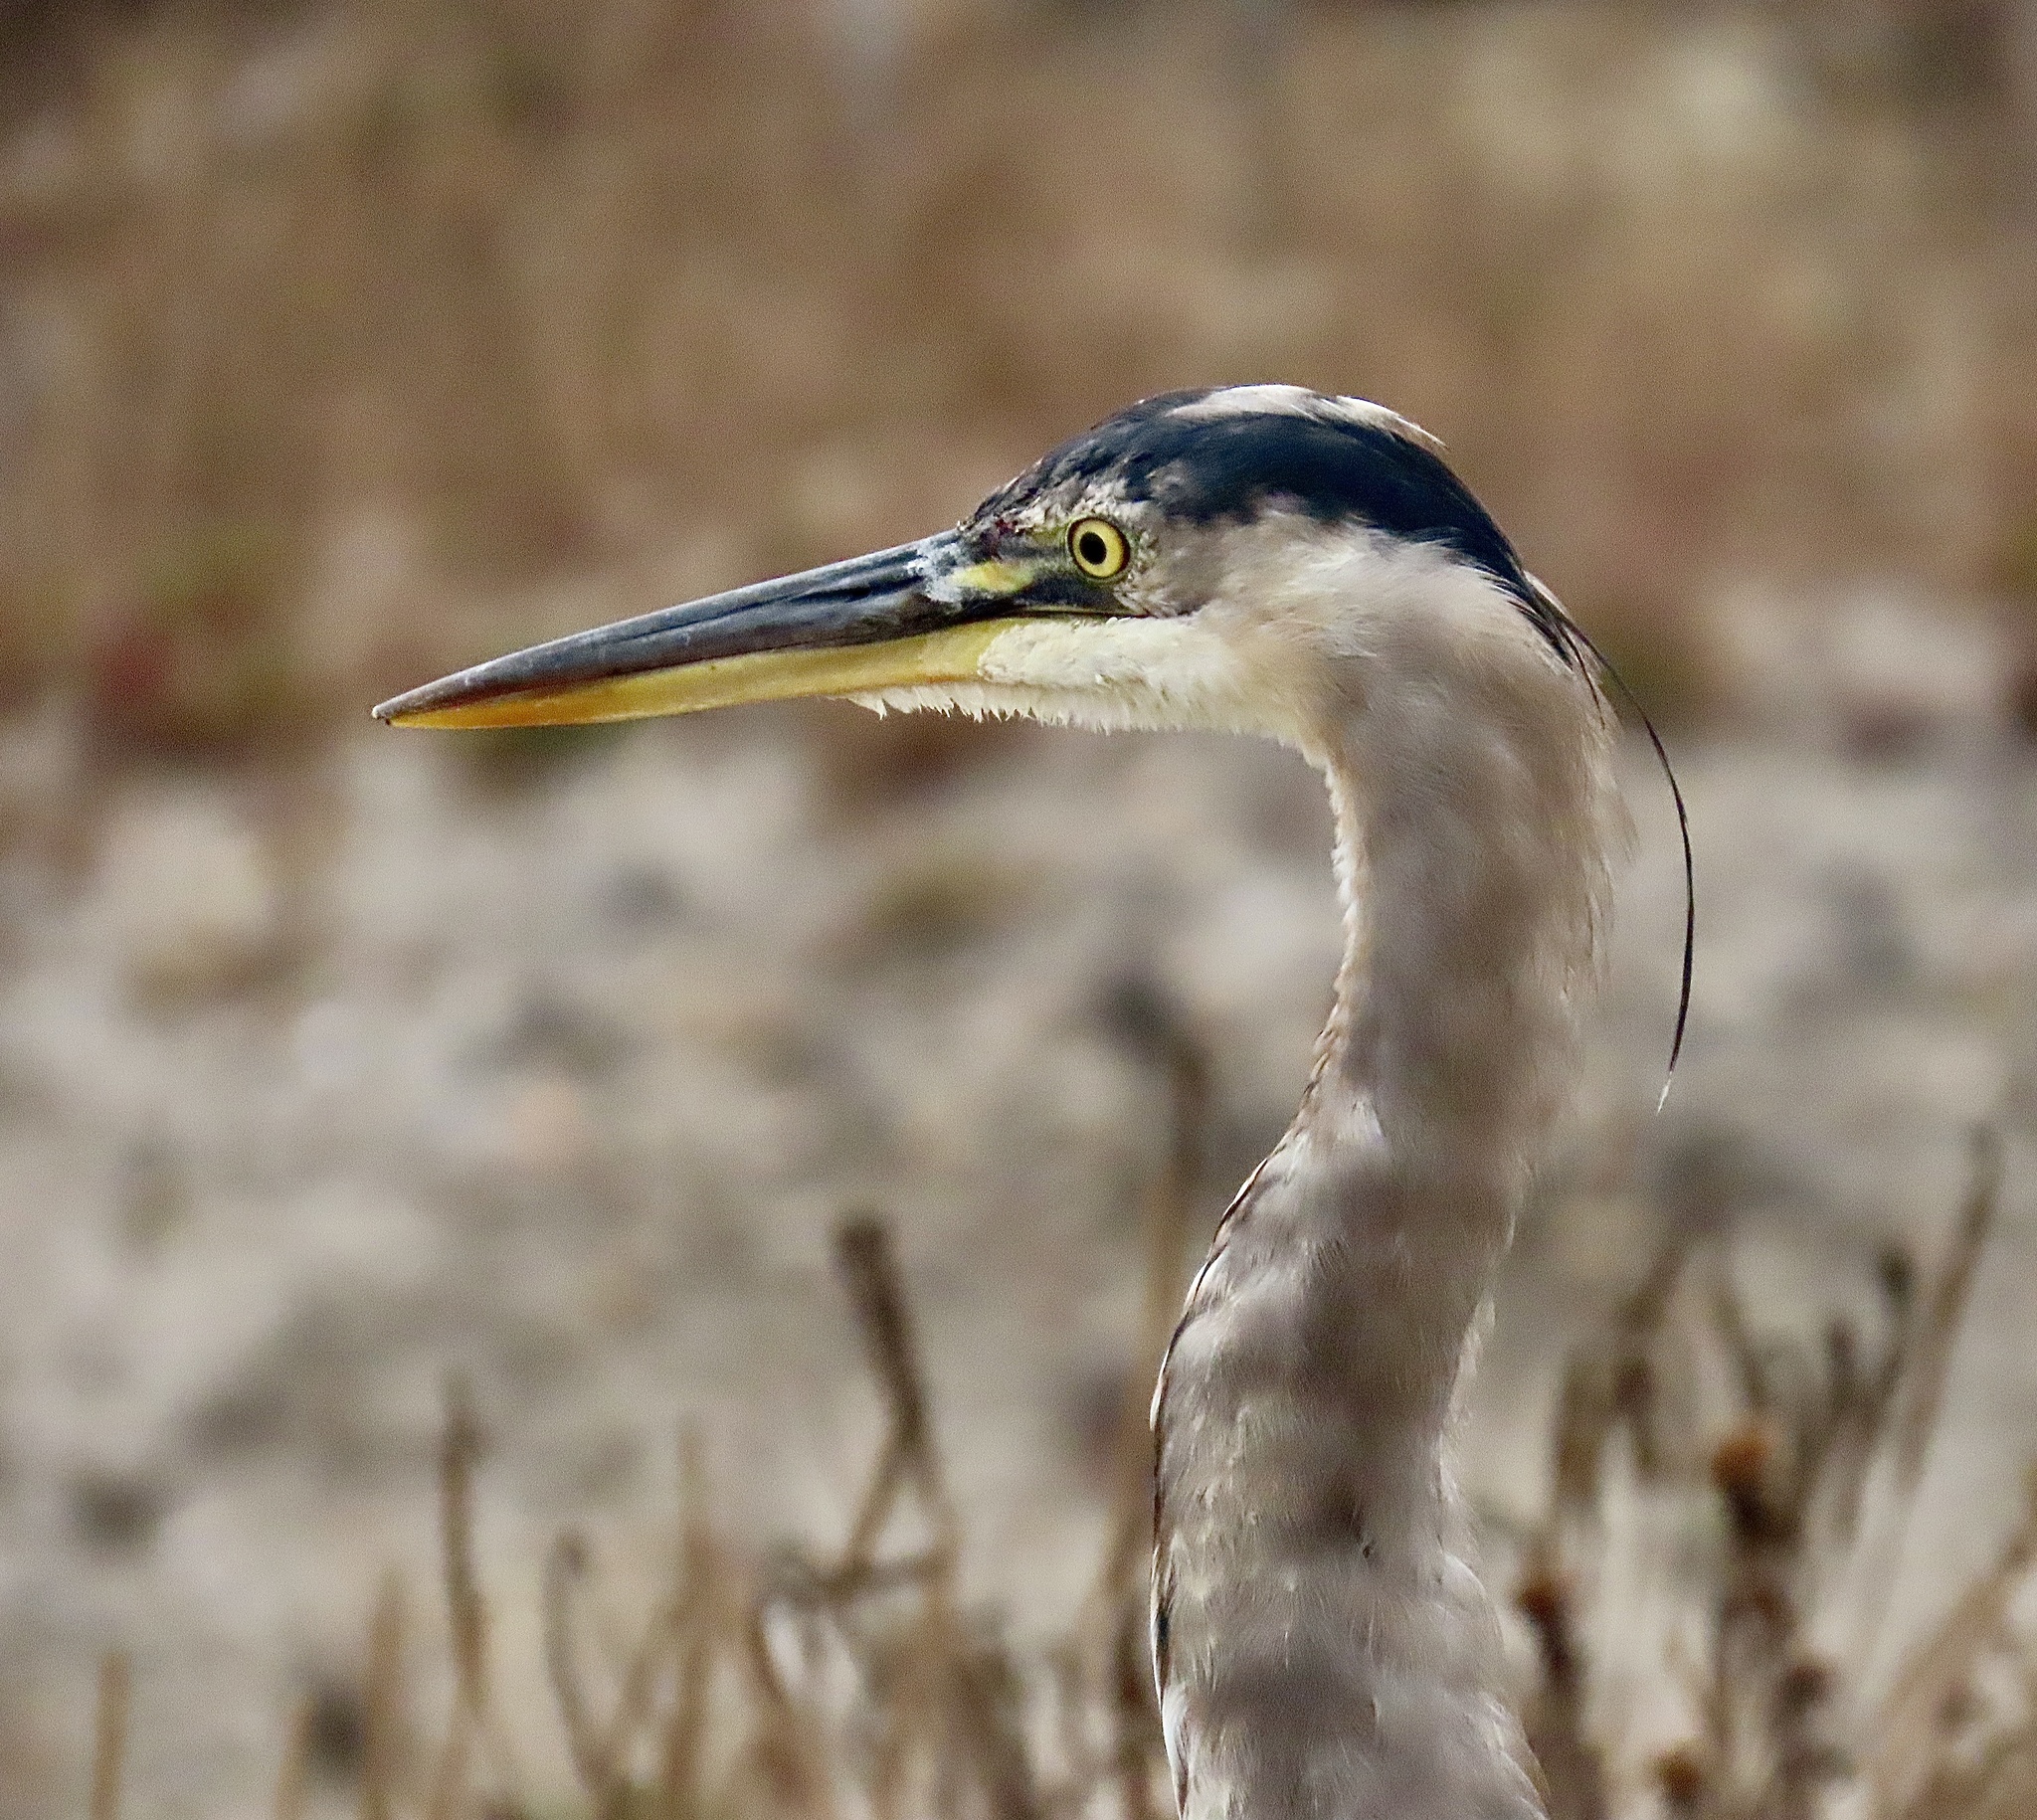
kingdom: Animalia
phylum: Chordata
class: Aves
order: Pelecaniformes
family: Ardeidae
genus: Ardea
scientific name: Ardea herodias
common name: Great blue heron
